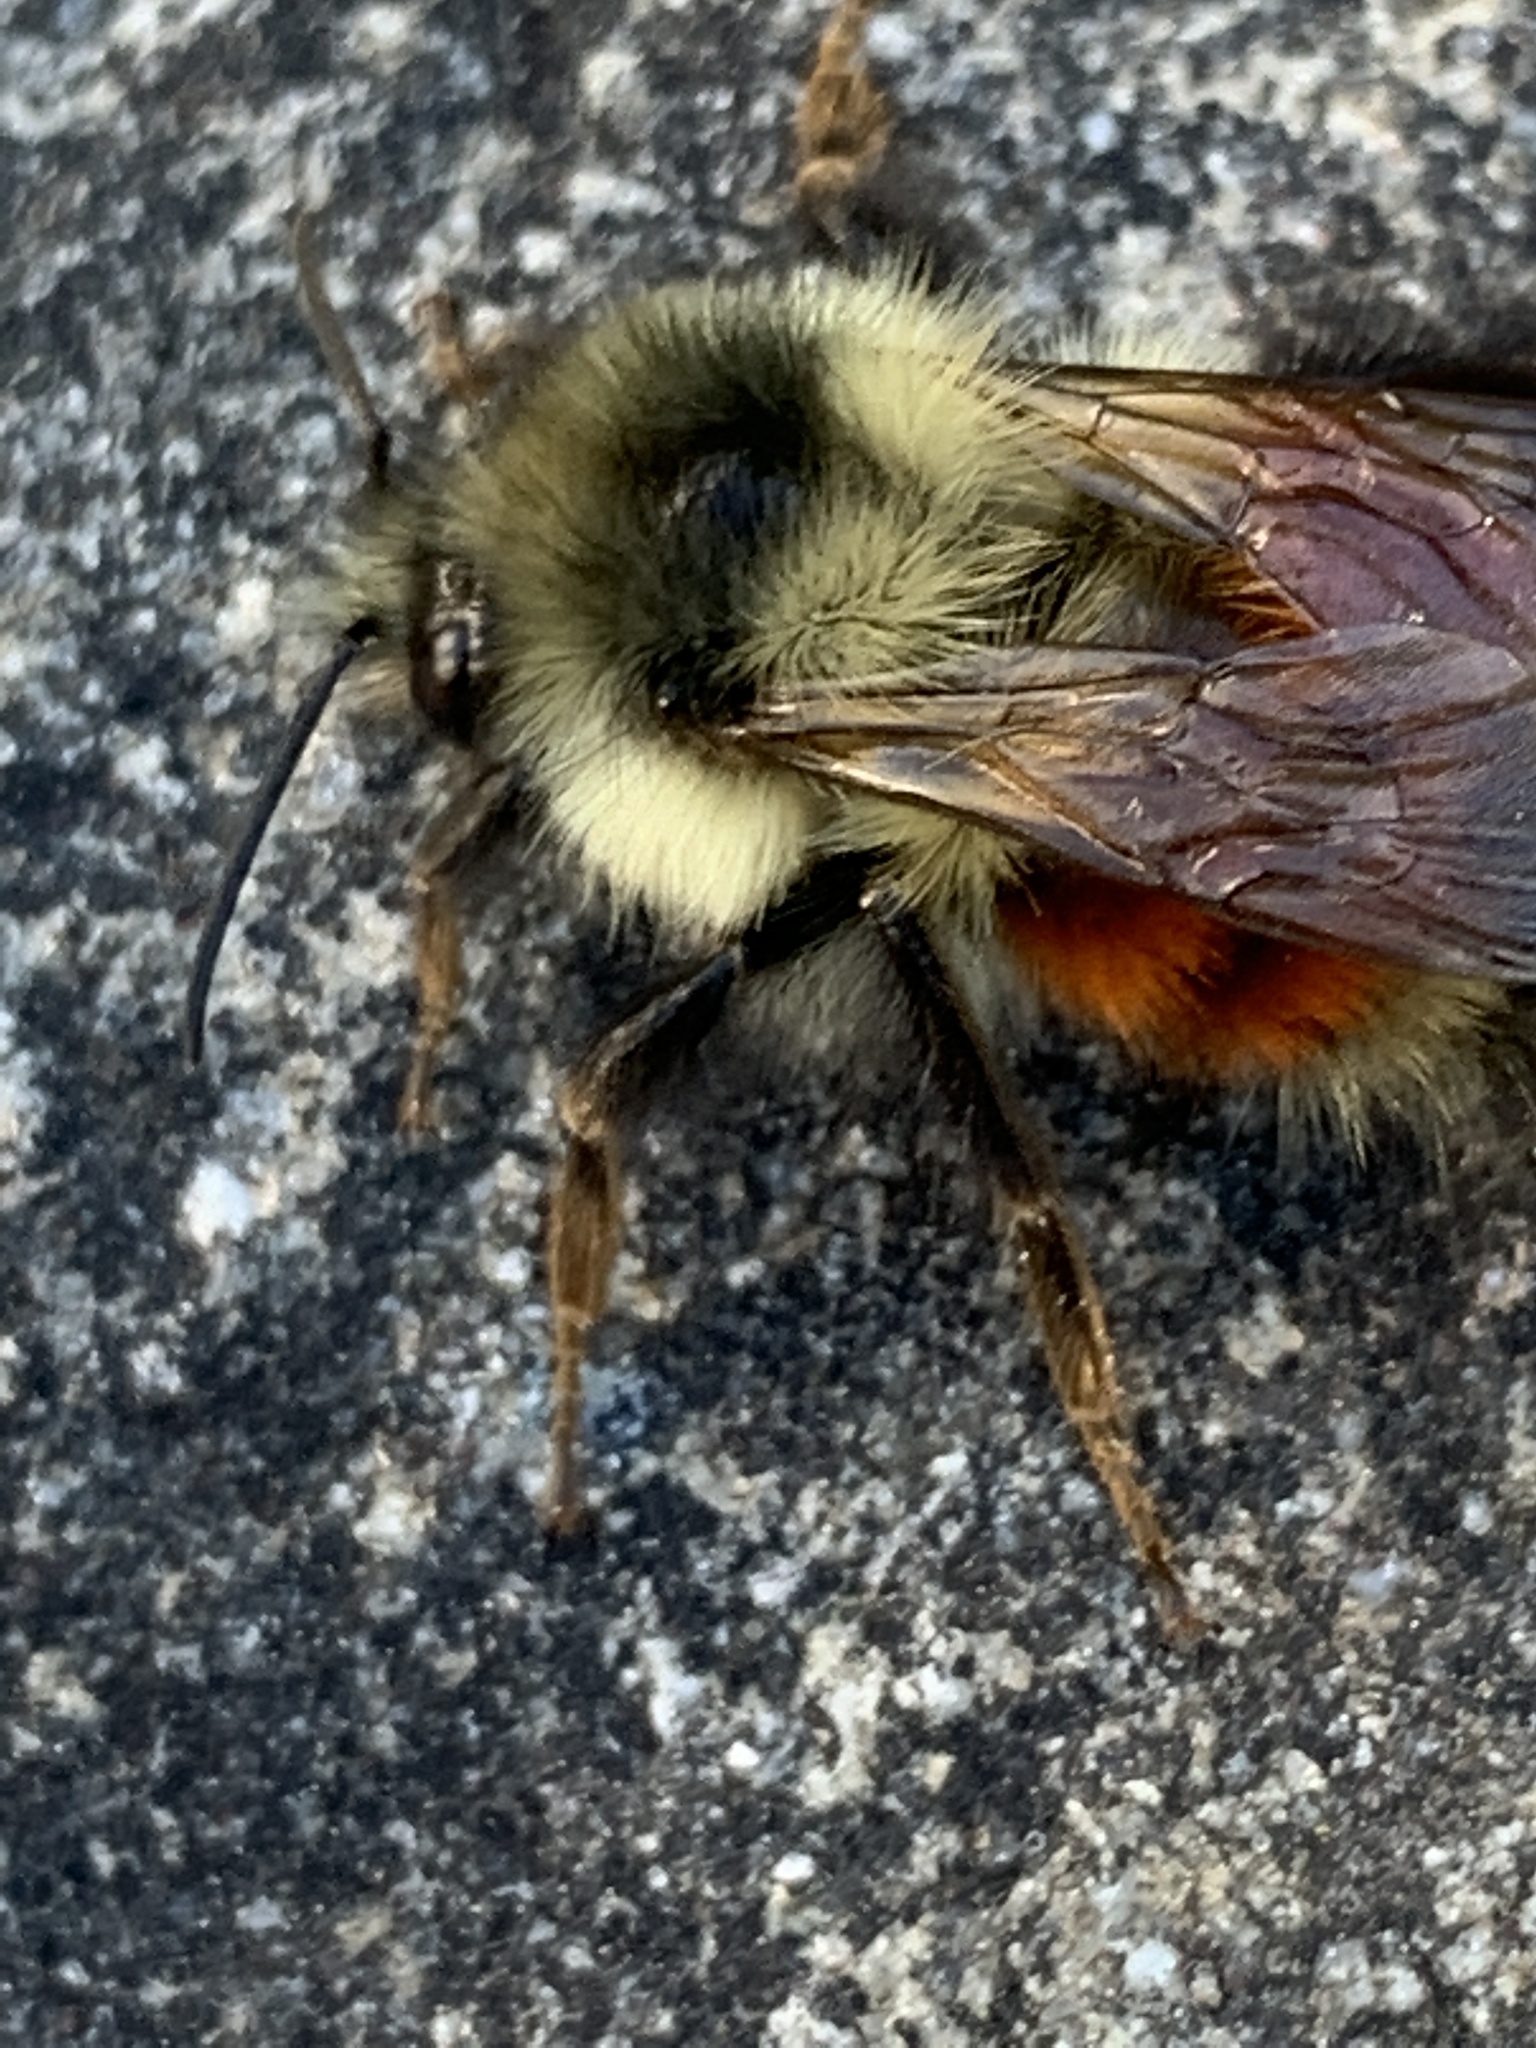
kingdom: Animalia
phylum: Arthropoda
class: Insecta
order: Hymenoptera
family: Apidae
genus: Bombus
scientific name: Bombus melanopygus
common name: Black tail bumble bee
